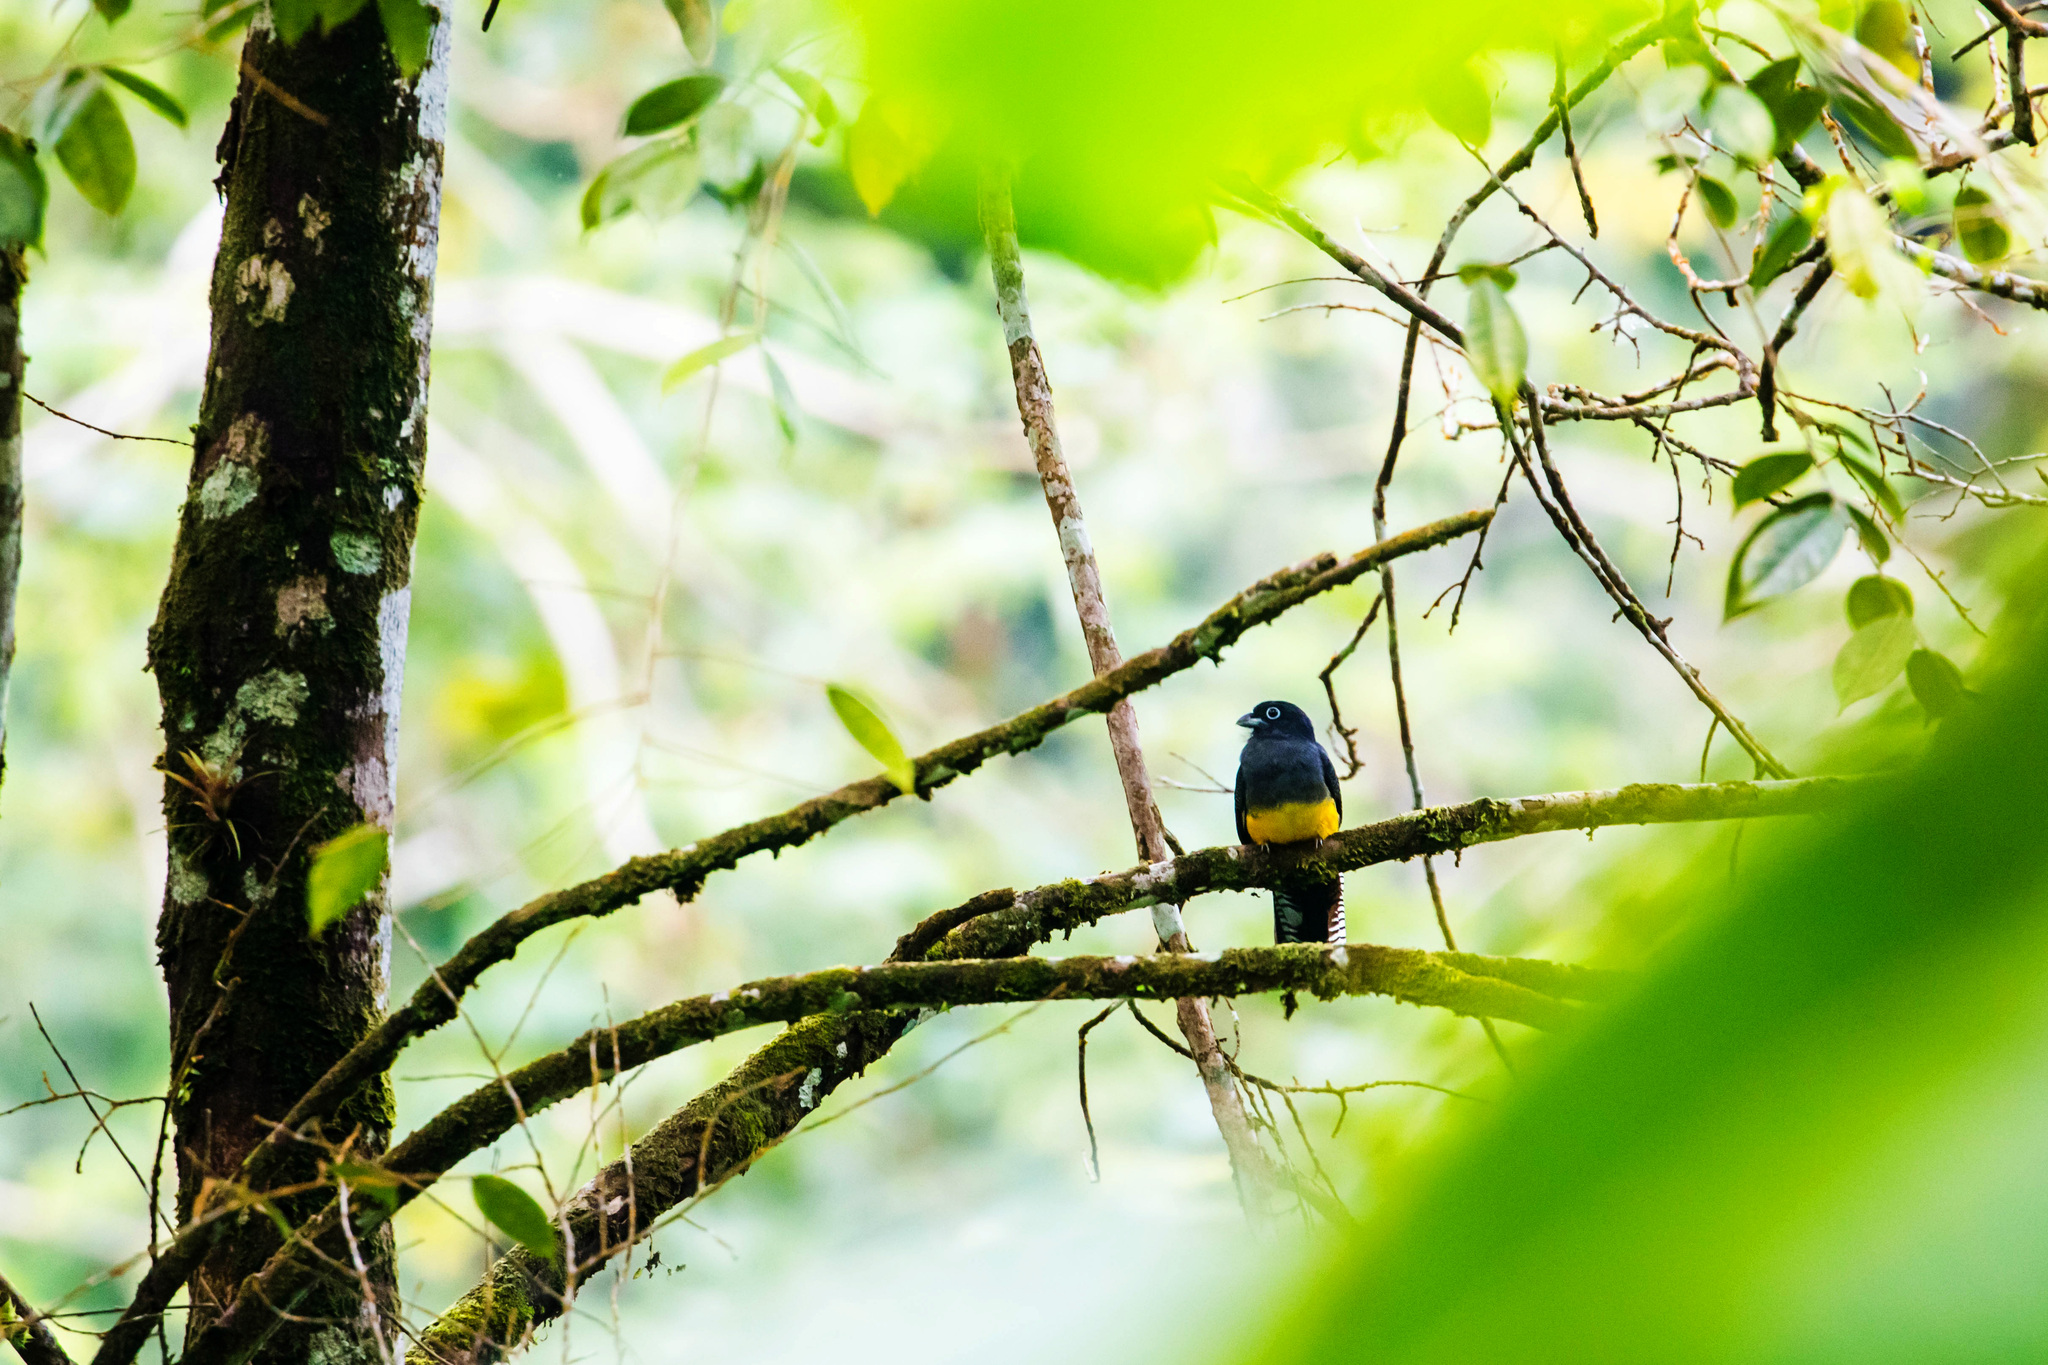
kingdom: Animalia
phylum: Chordata
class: Aves
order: Trogoniformes
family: Trogonidae
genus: Trogon
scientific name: Trogon viridis
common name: Green-backed trogon
